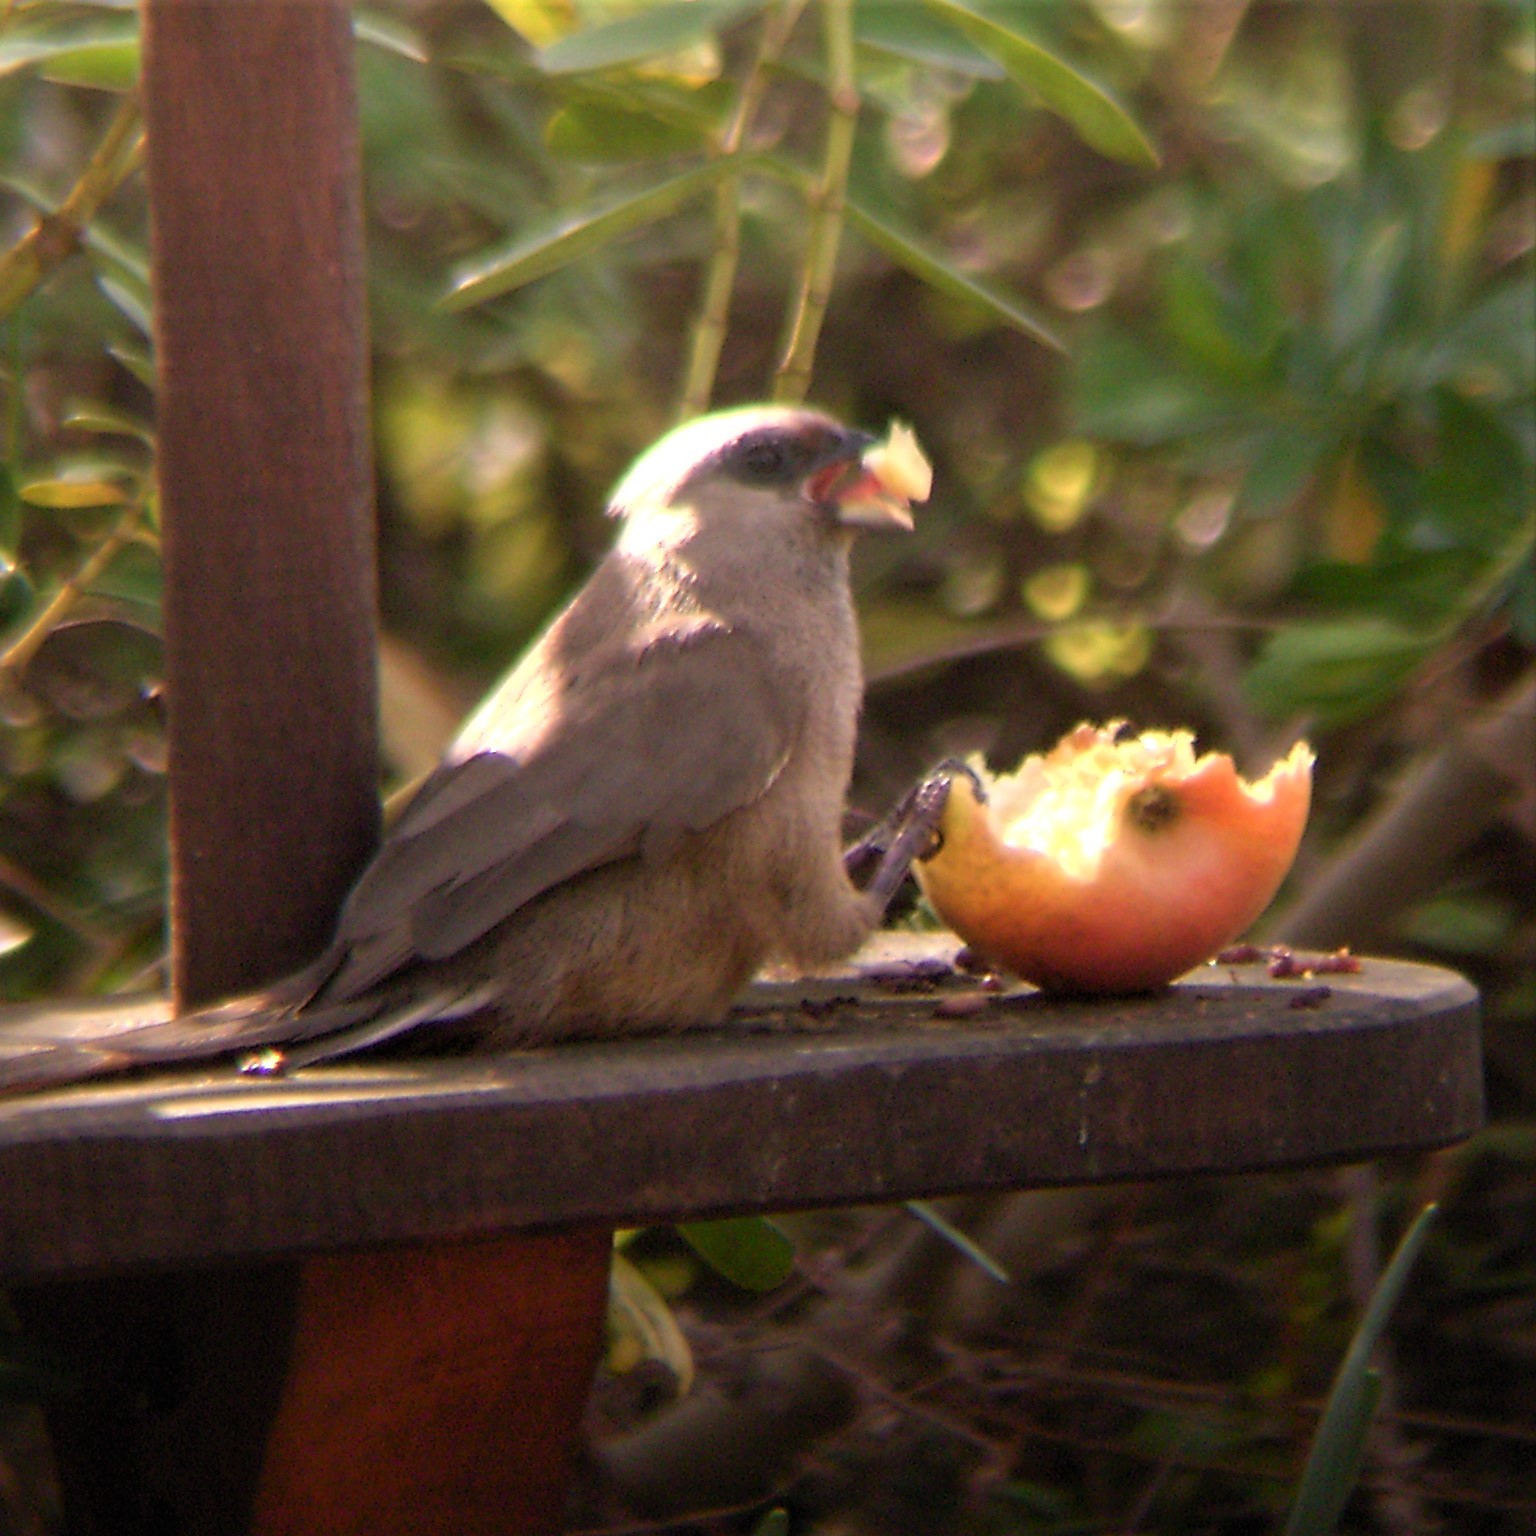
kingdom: Animalia
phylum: Chordata
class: Aves
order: Coliiformes
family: Coliidae
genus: Colius
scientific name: Colius striatus
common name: Speckled mousebird
